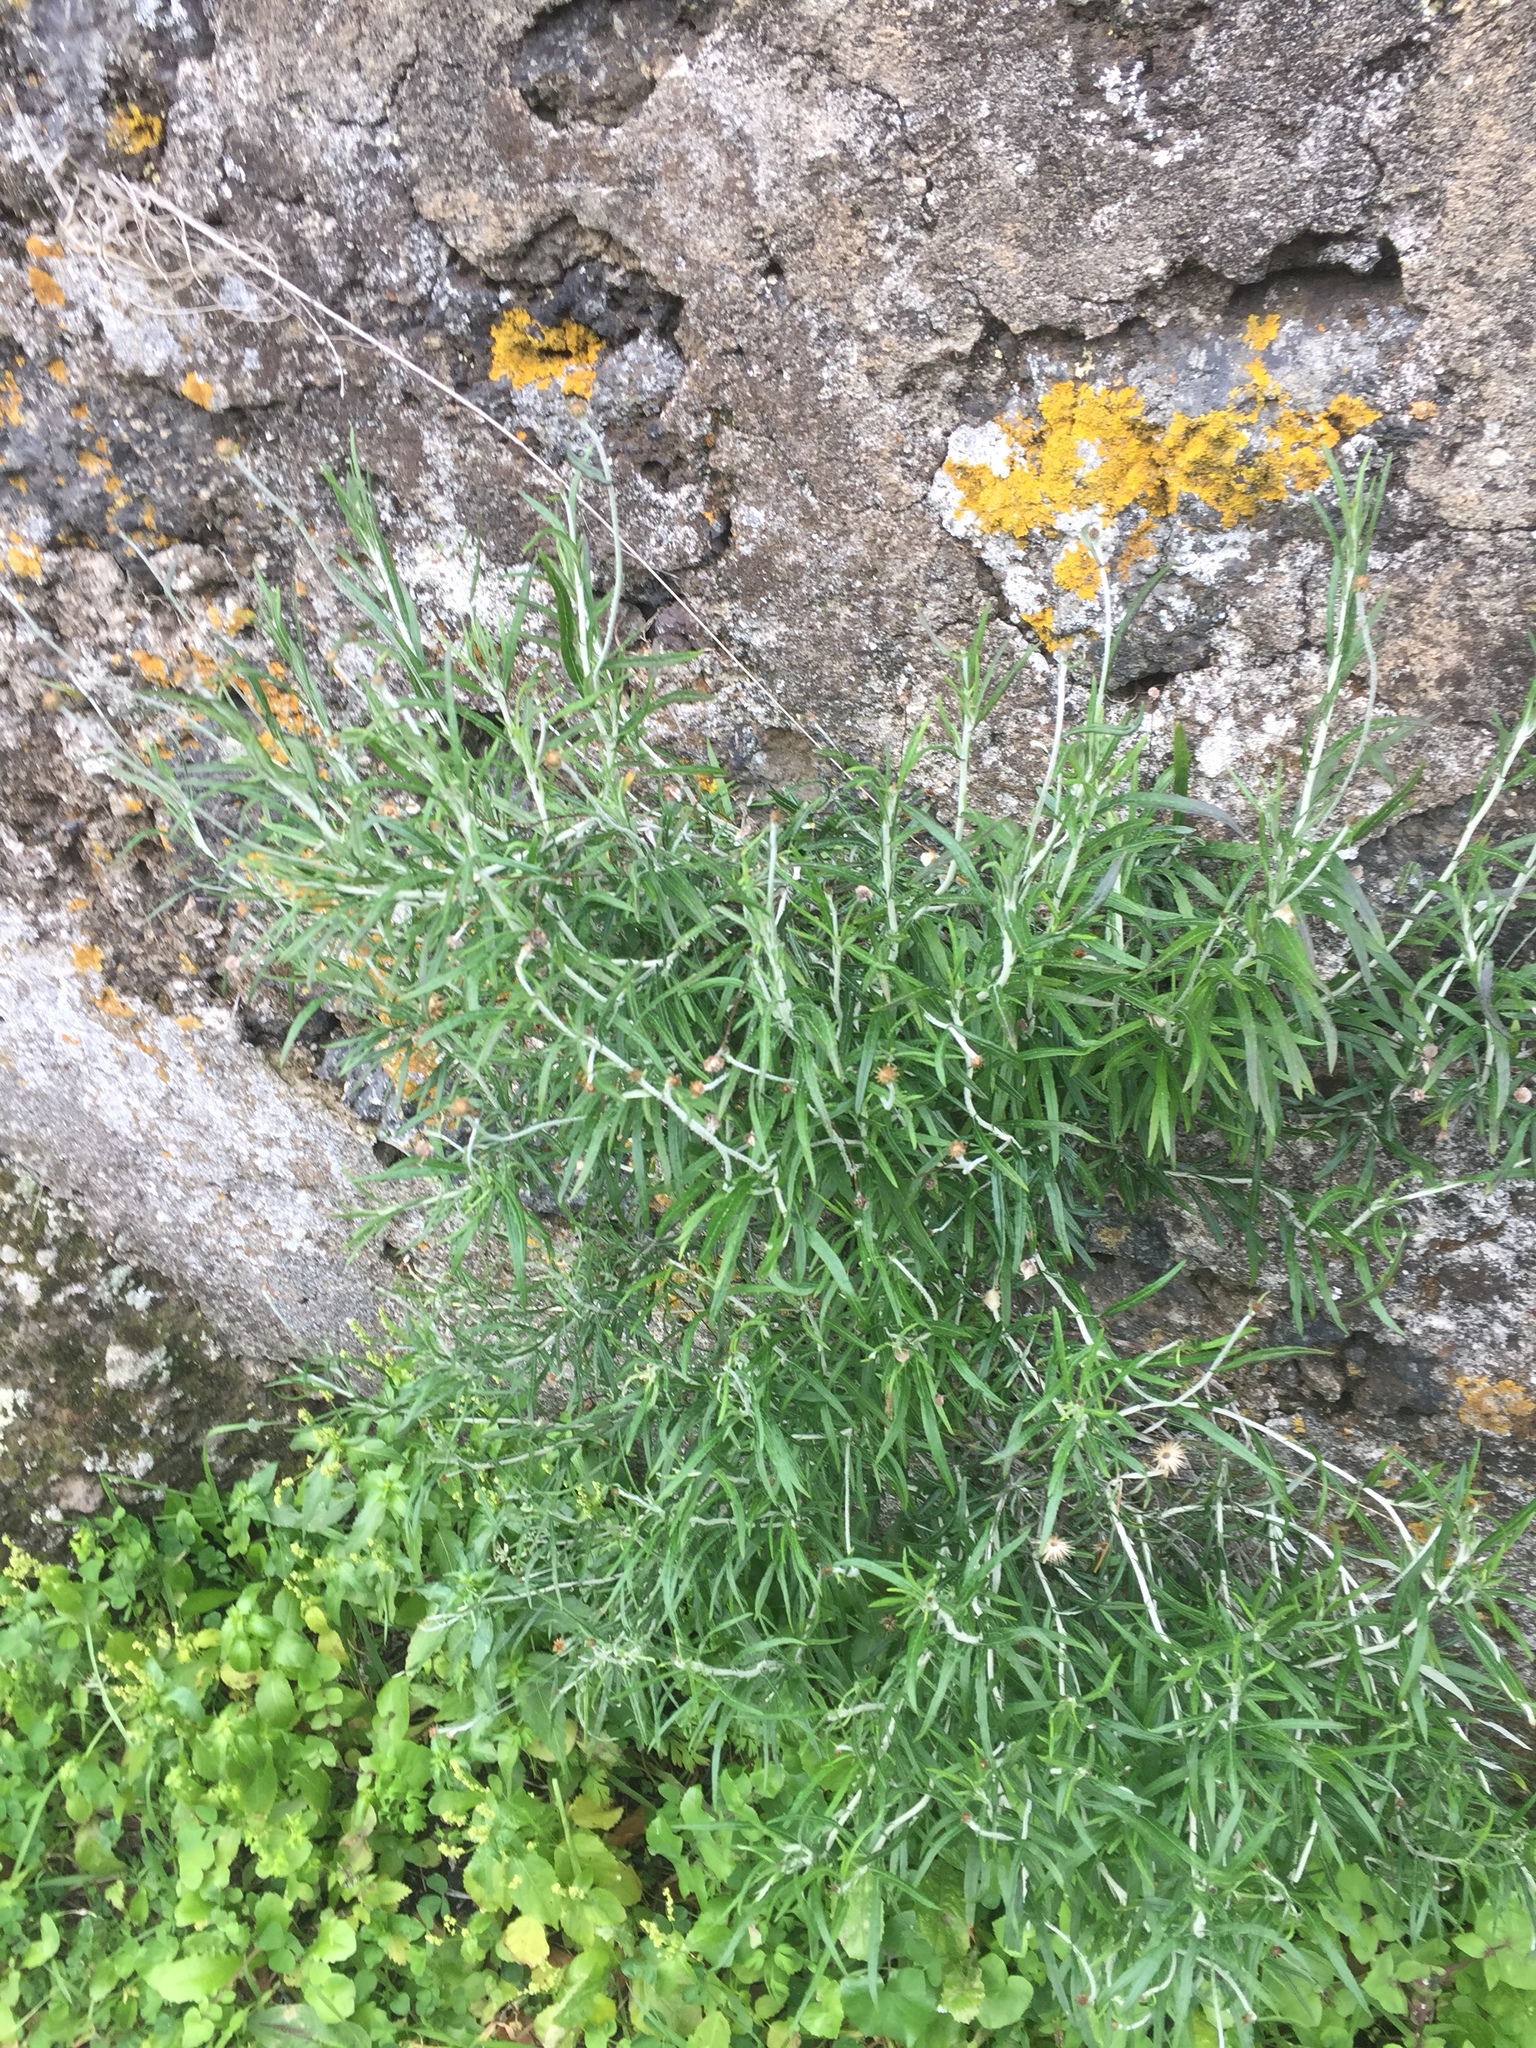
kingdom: Plantae
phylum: Tracheophyta
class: Magnoliopsida
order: Asterales
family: Asteraceae
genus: Phagnalon
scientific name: Phagnalon saxatile
